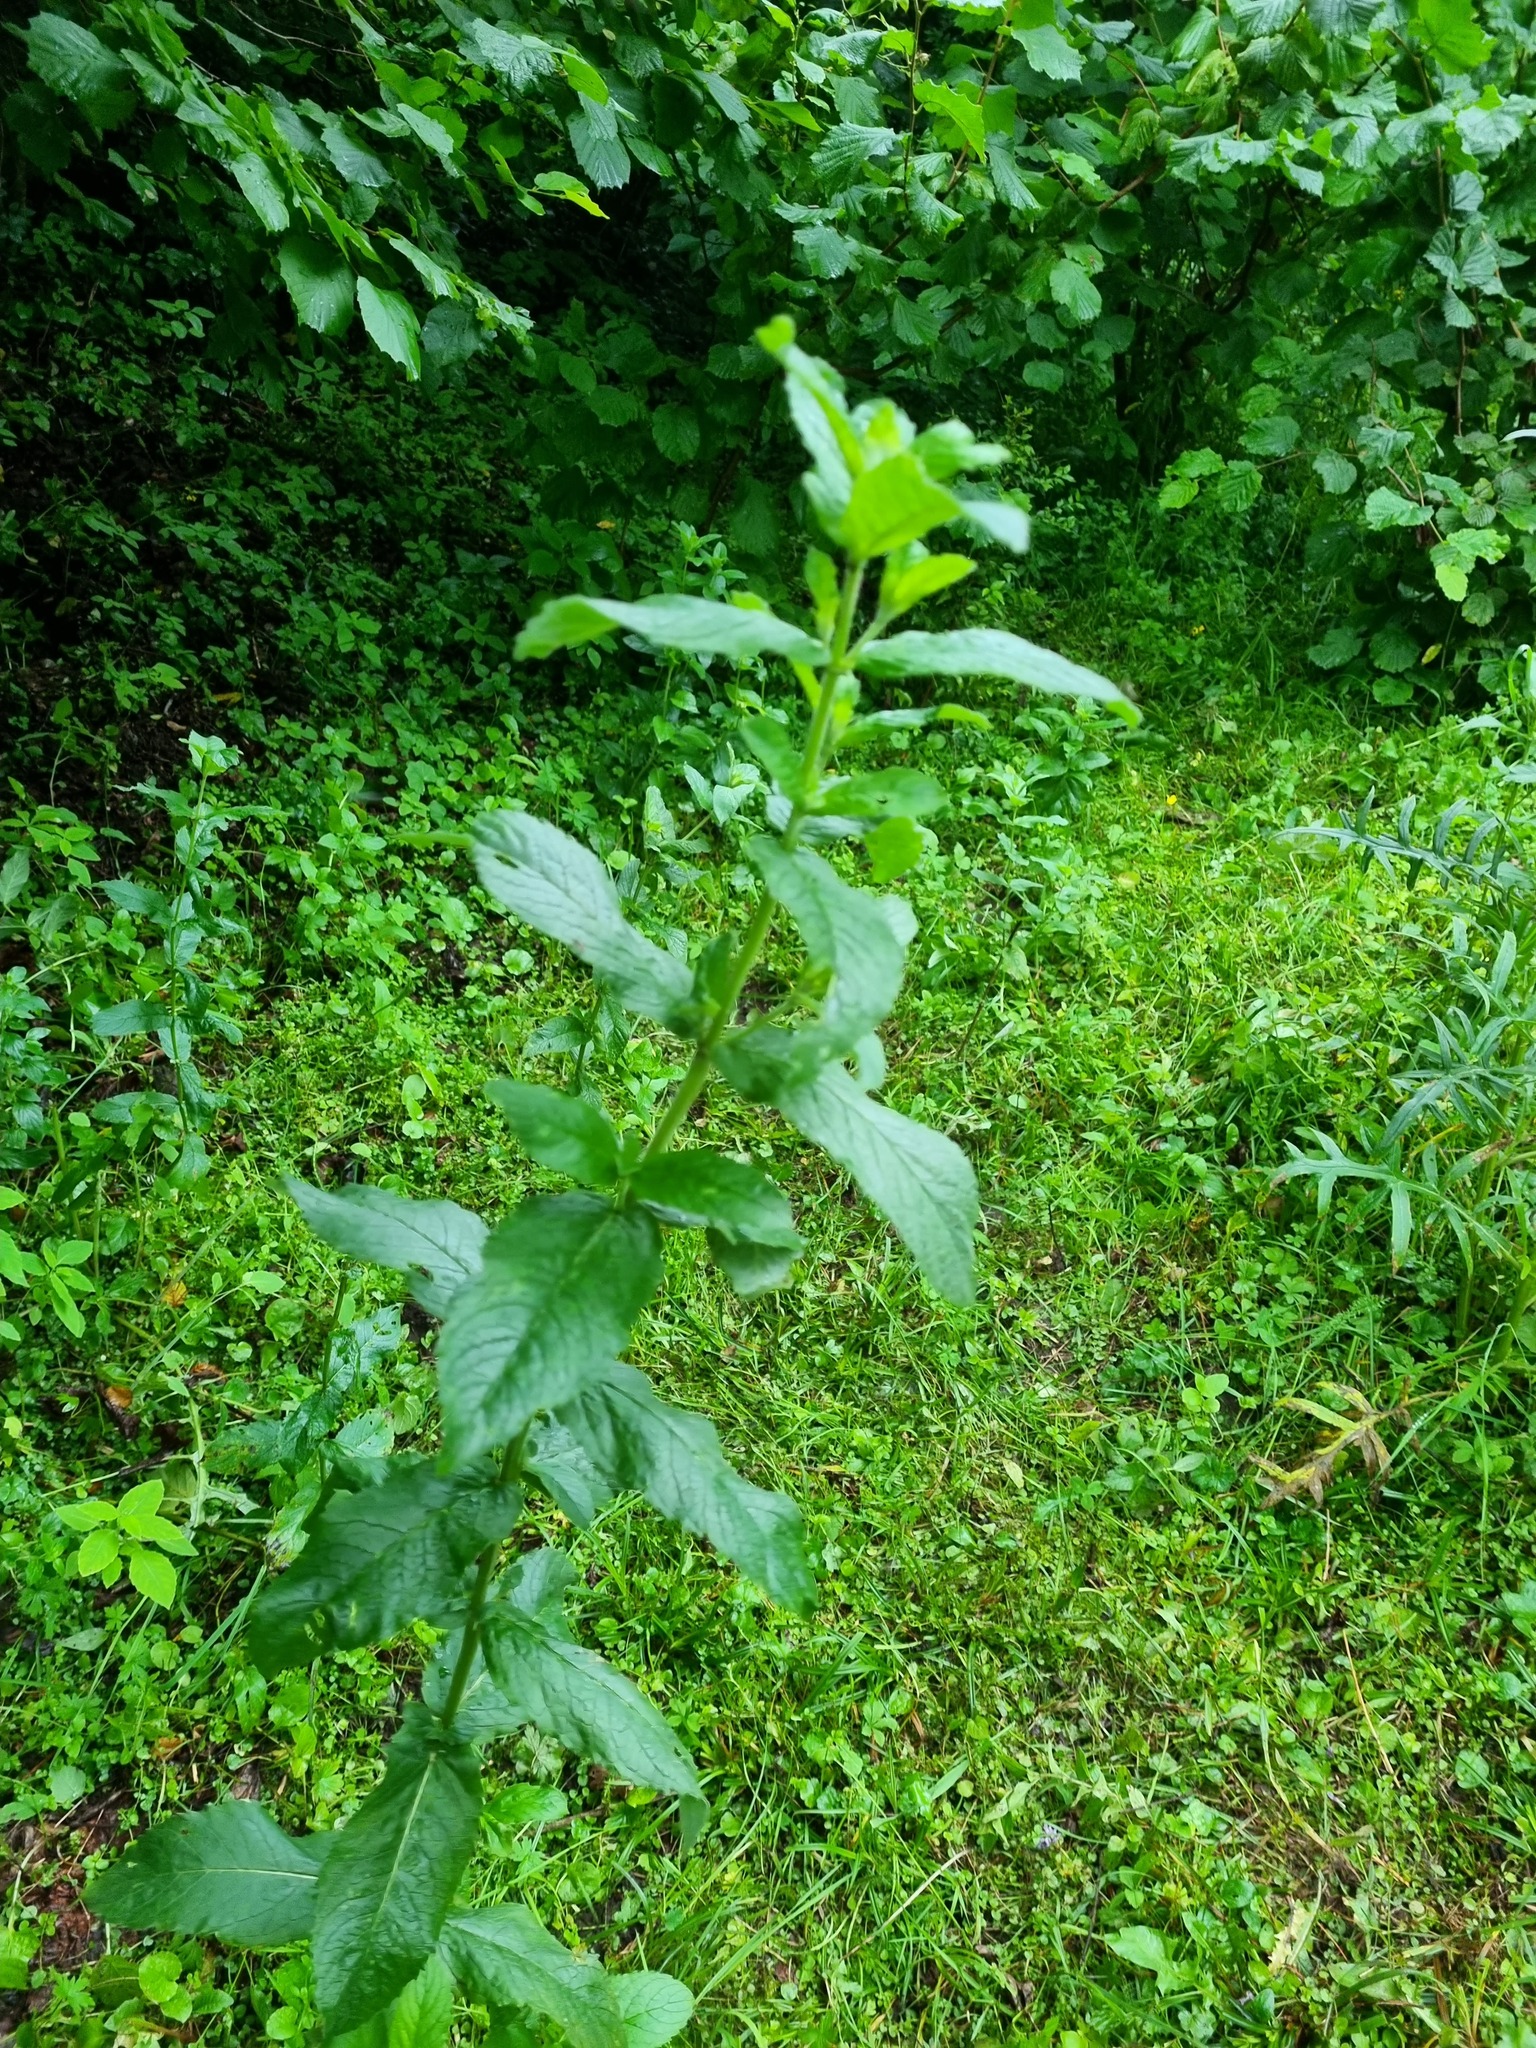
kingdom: Plantae
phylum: Tracheophyta
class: Magnoliopsida
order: Lamiales
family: Lamiaceae
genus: Mentha
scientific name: Mentha longifolia
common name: Horse mint
